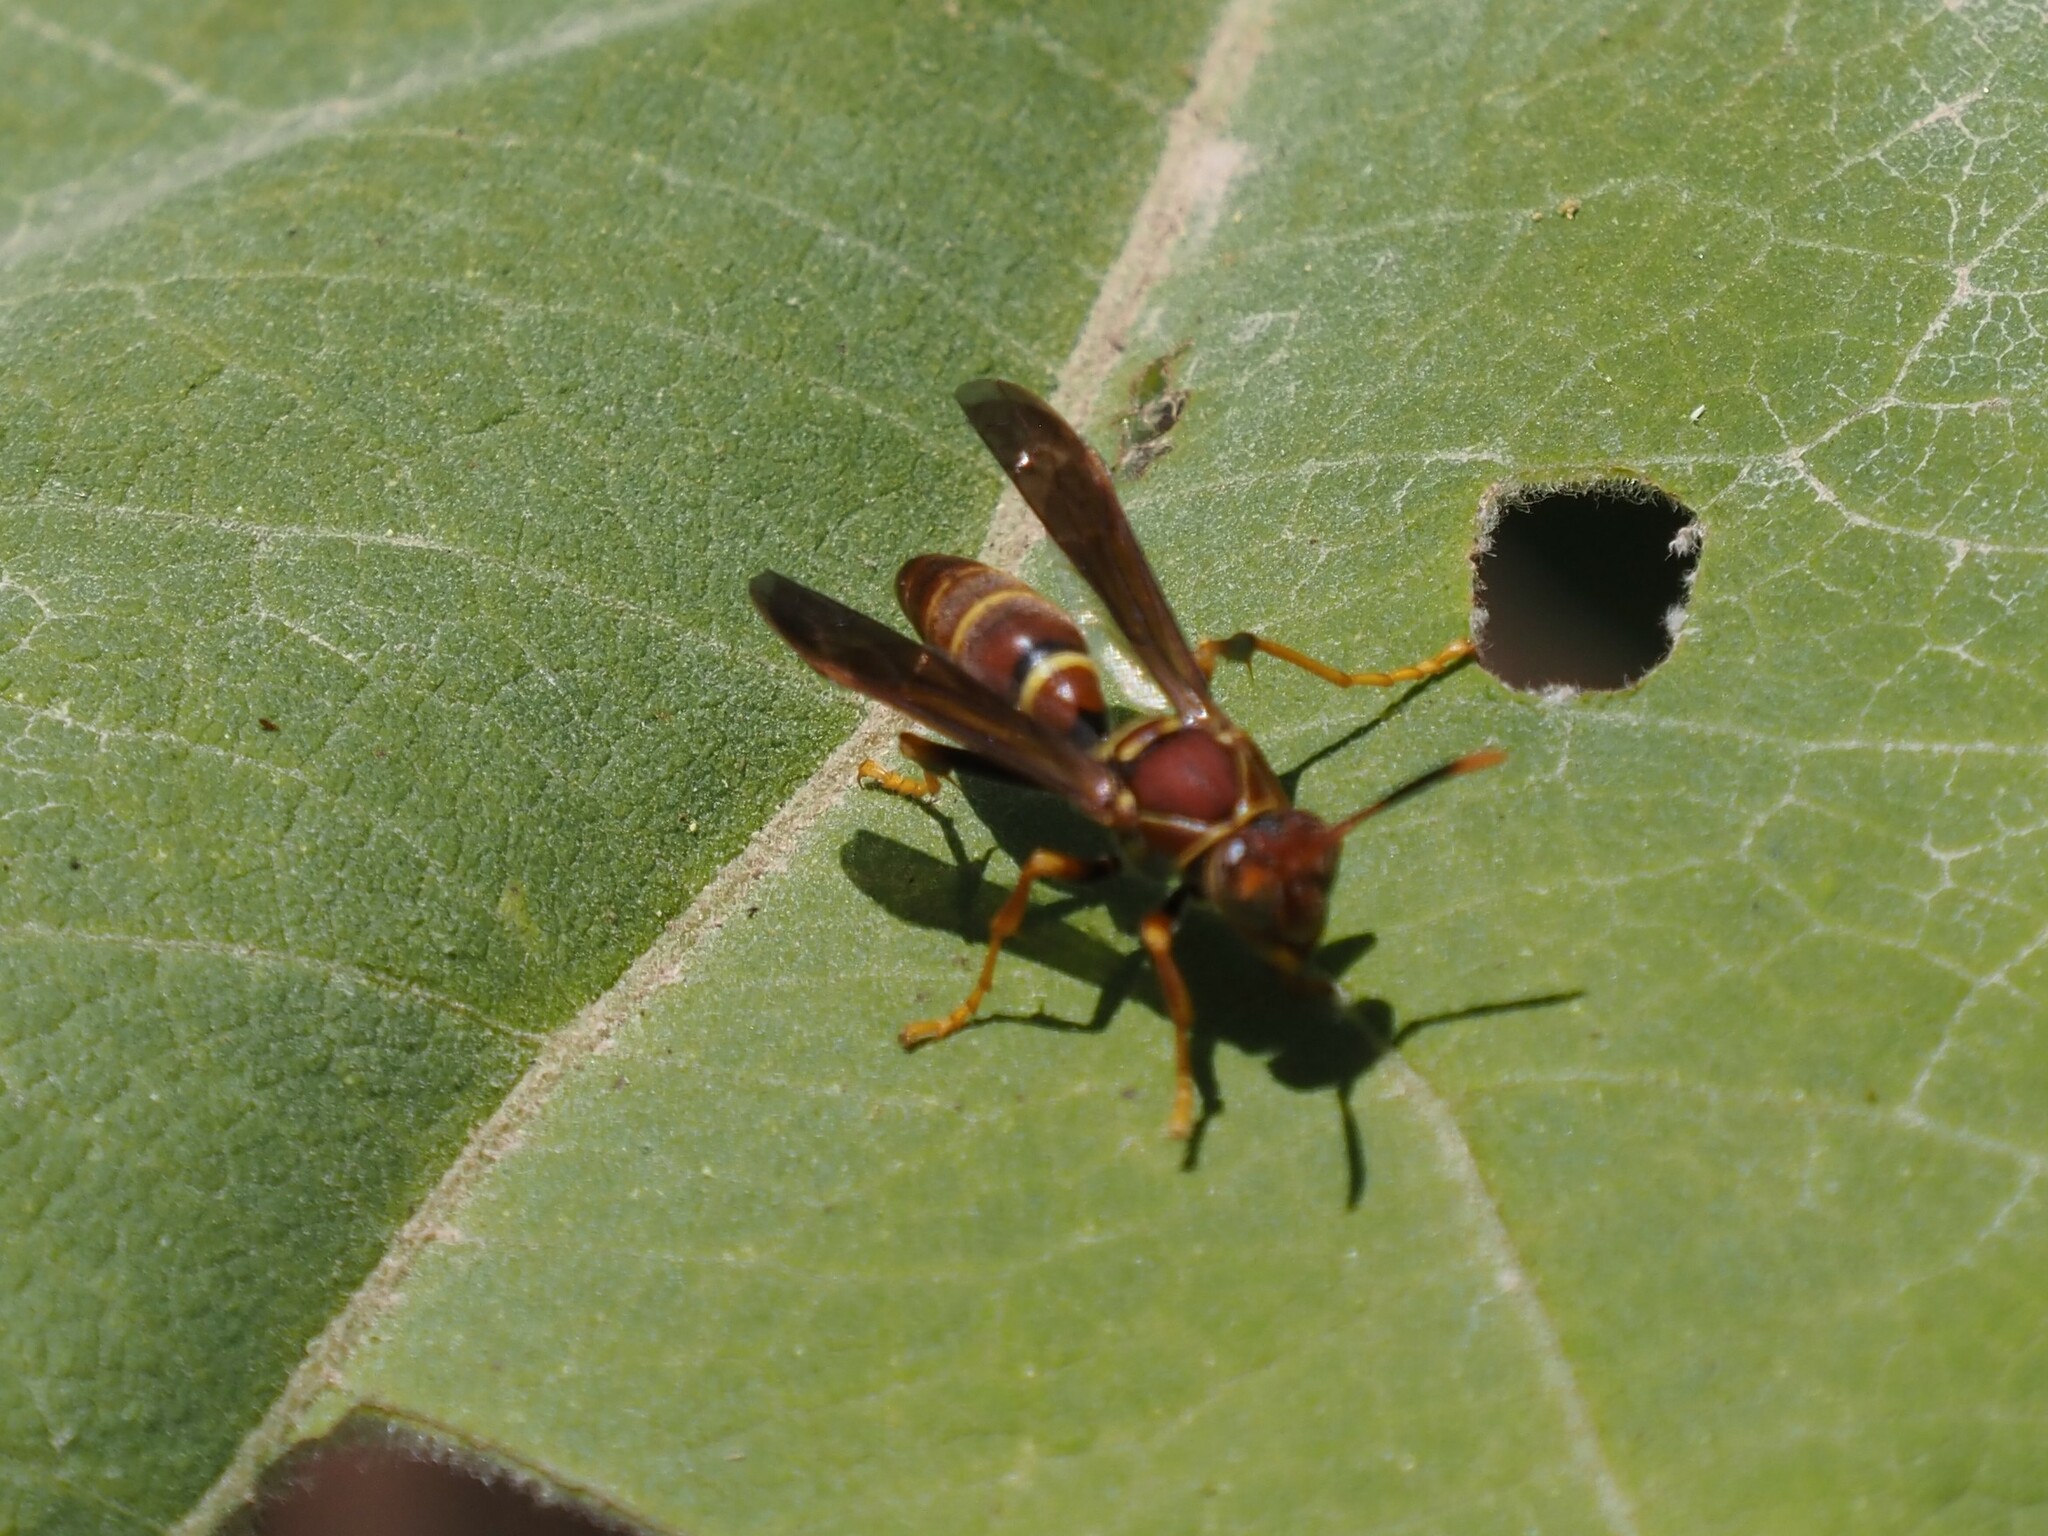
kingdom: Animalia
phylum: Arthropoda
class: Insecta
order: Hymenoptera
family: Eumenidae
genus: Polistes
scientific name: Polistes instabilis
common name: Unstable paper wasp
